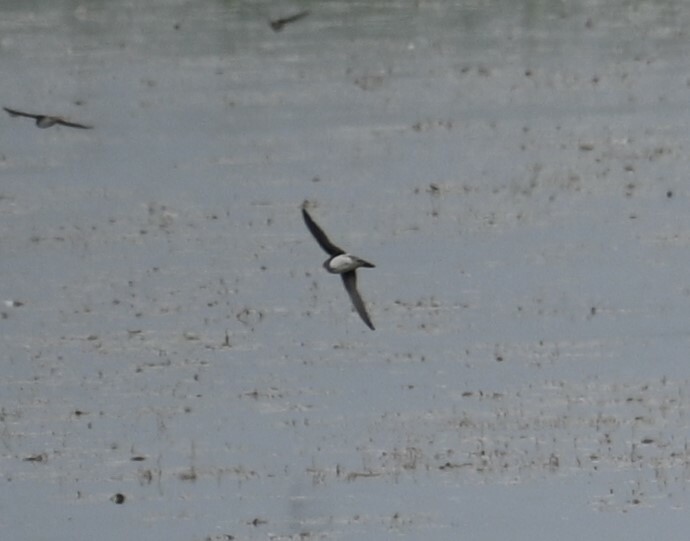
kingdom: Animalia
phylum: Chordata
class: Aves
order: Passeriformes
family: Hirundinidae
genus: Riparia
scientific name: Riparia riparia
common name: Sand martin
